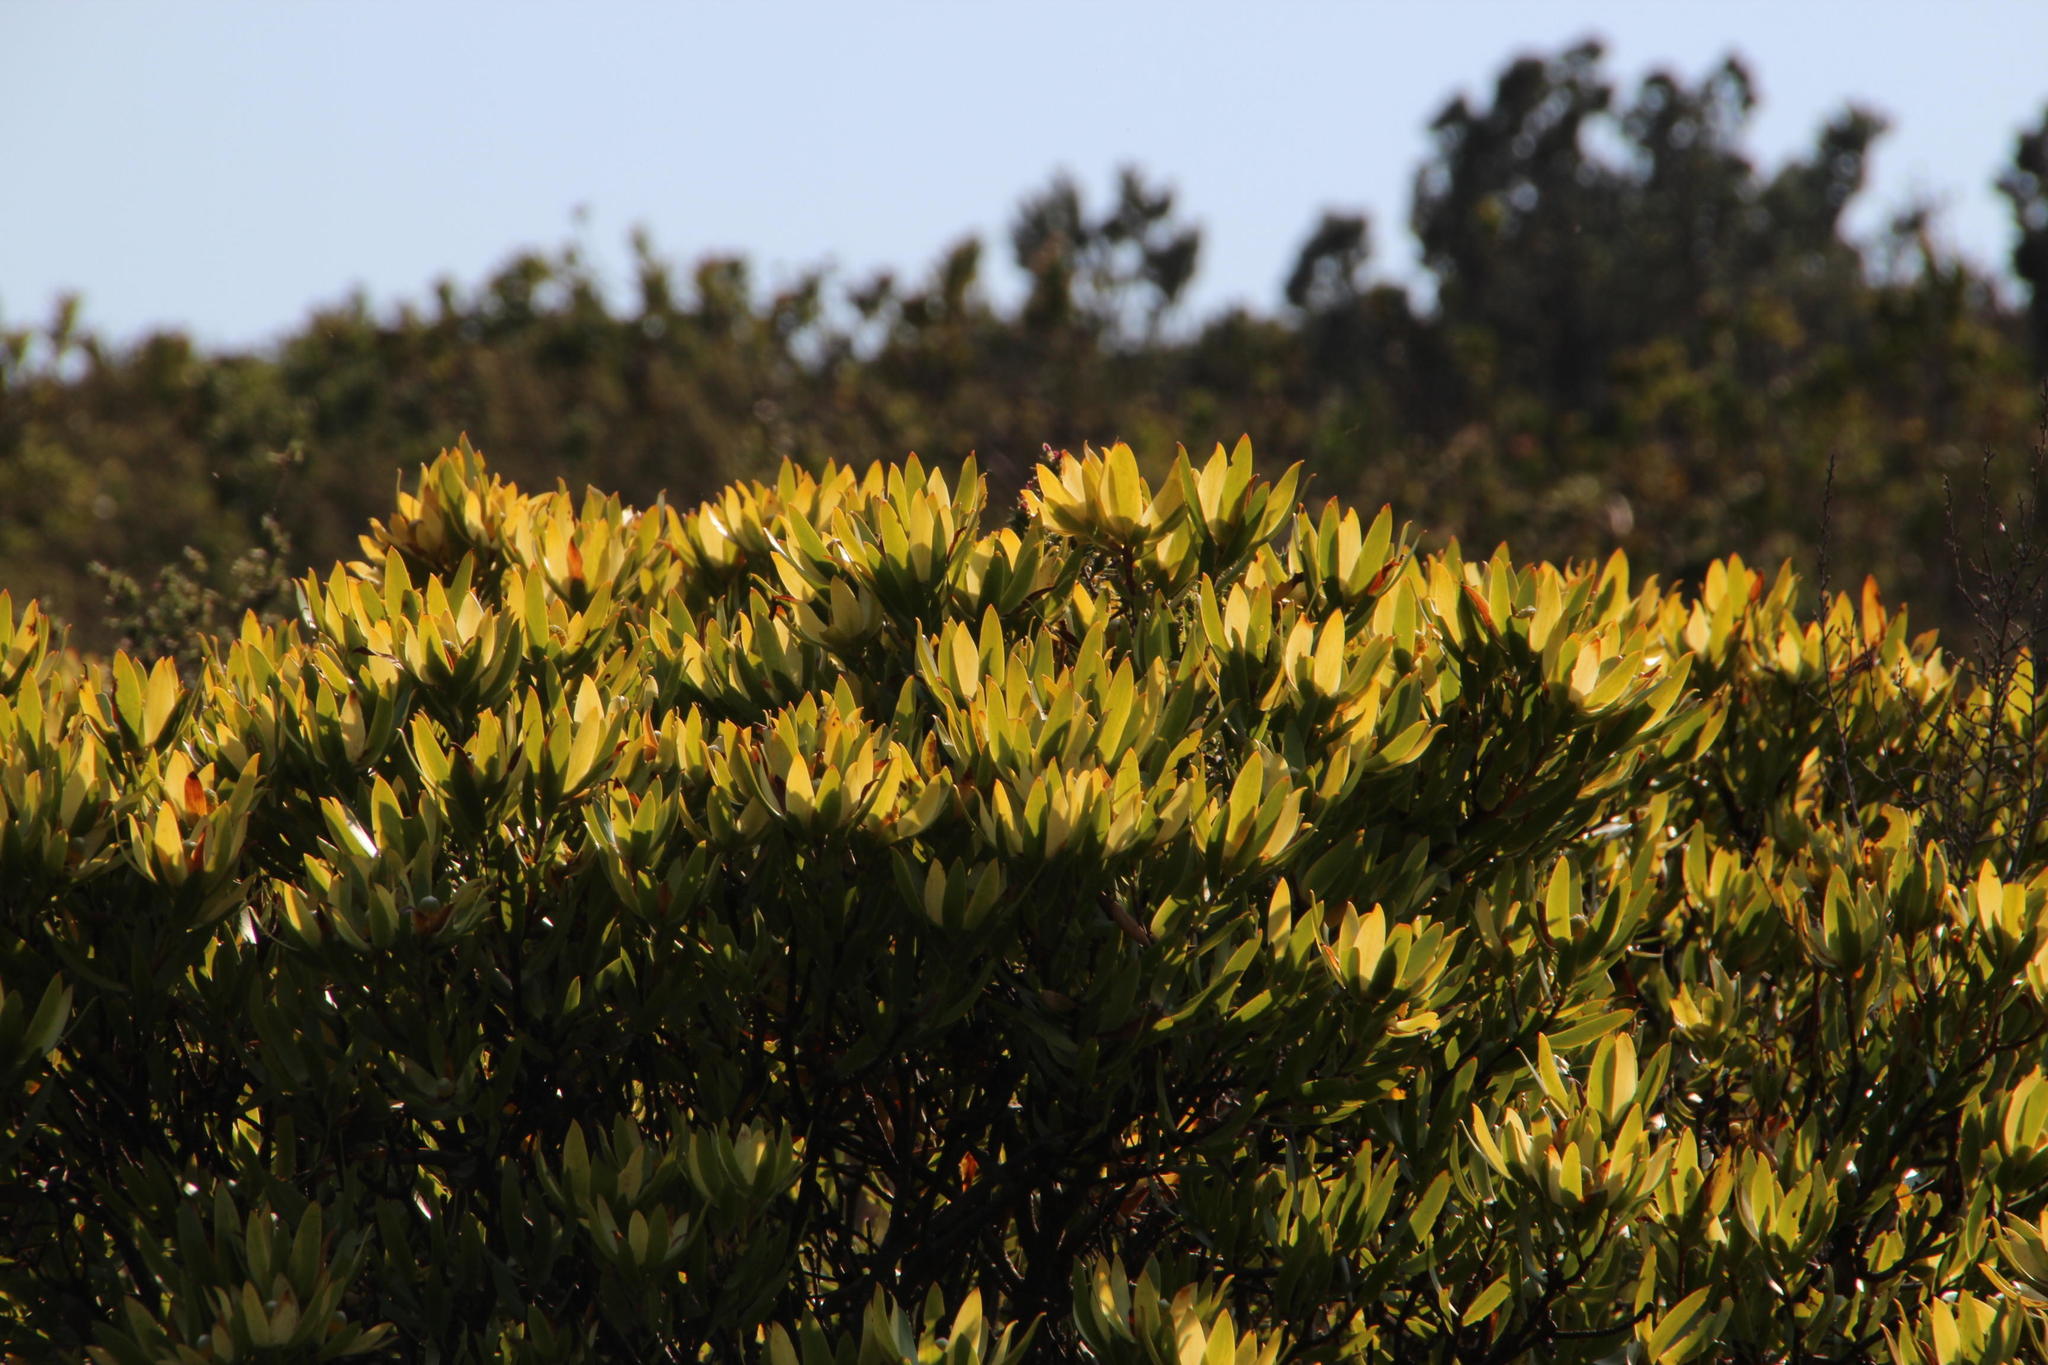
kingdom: Plantae
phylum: Tracheophyta
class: Magnoliopsida
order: Proteales
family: Proteaceae
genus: Leucadendron
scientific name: Leucadendron strobilinum
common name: Mountain rose
